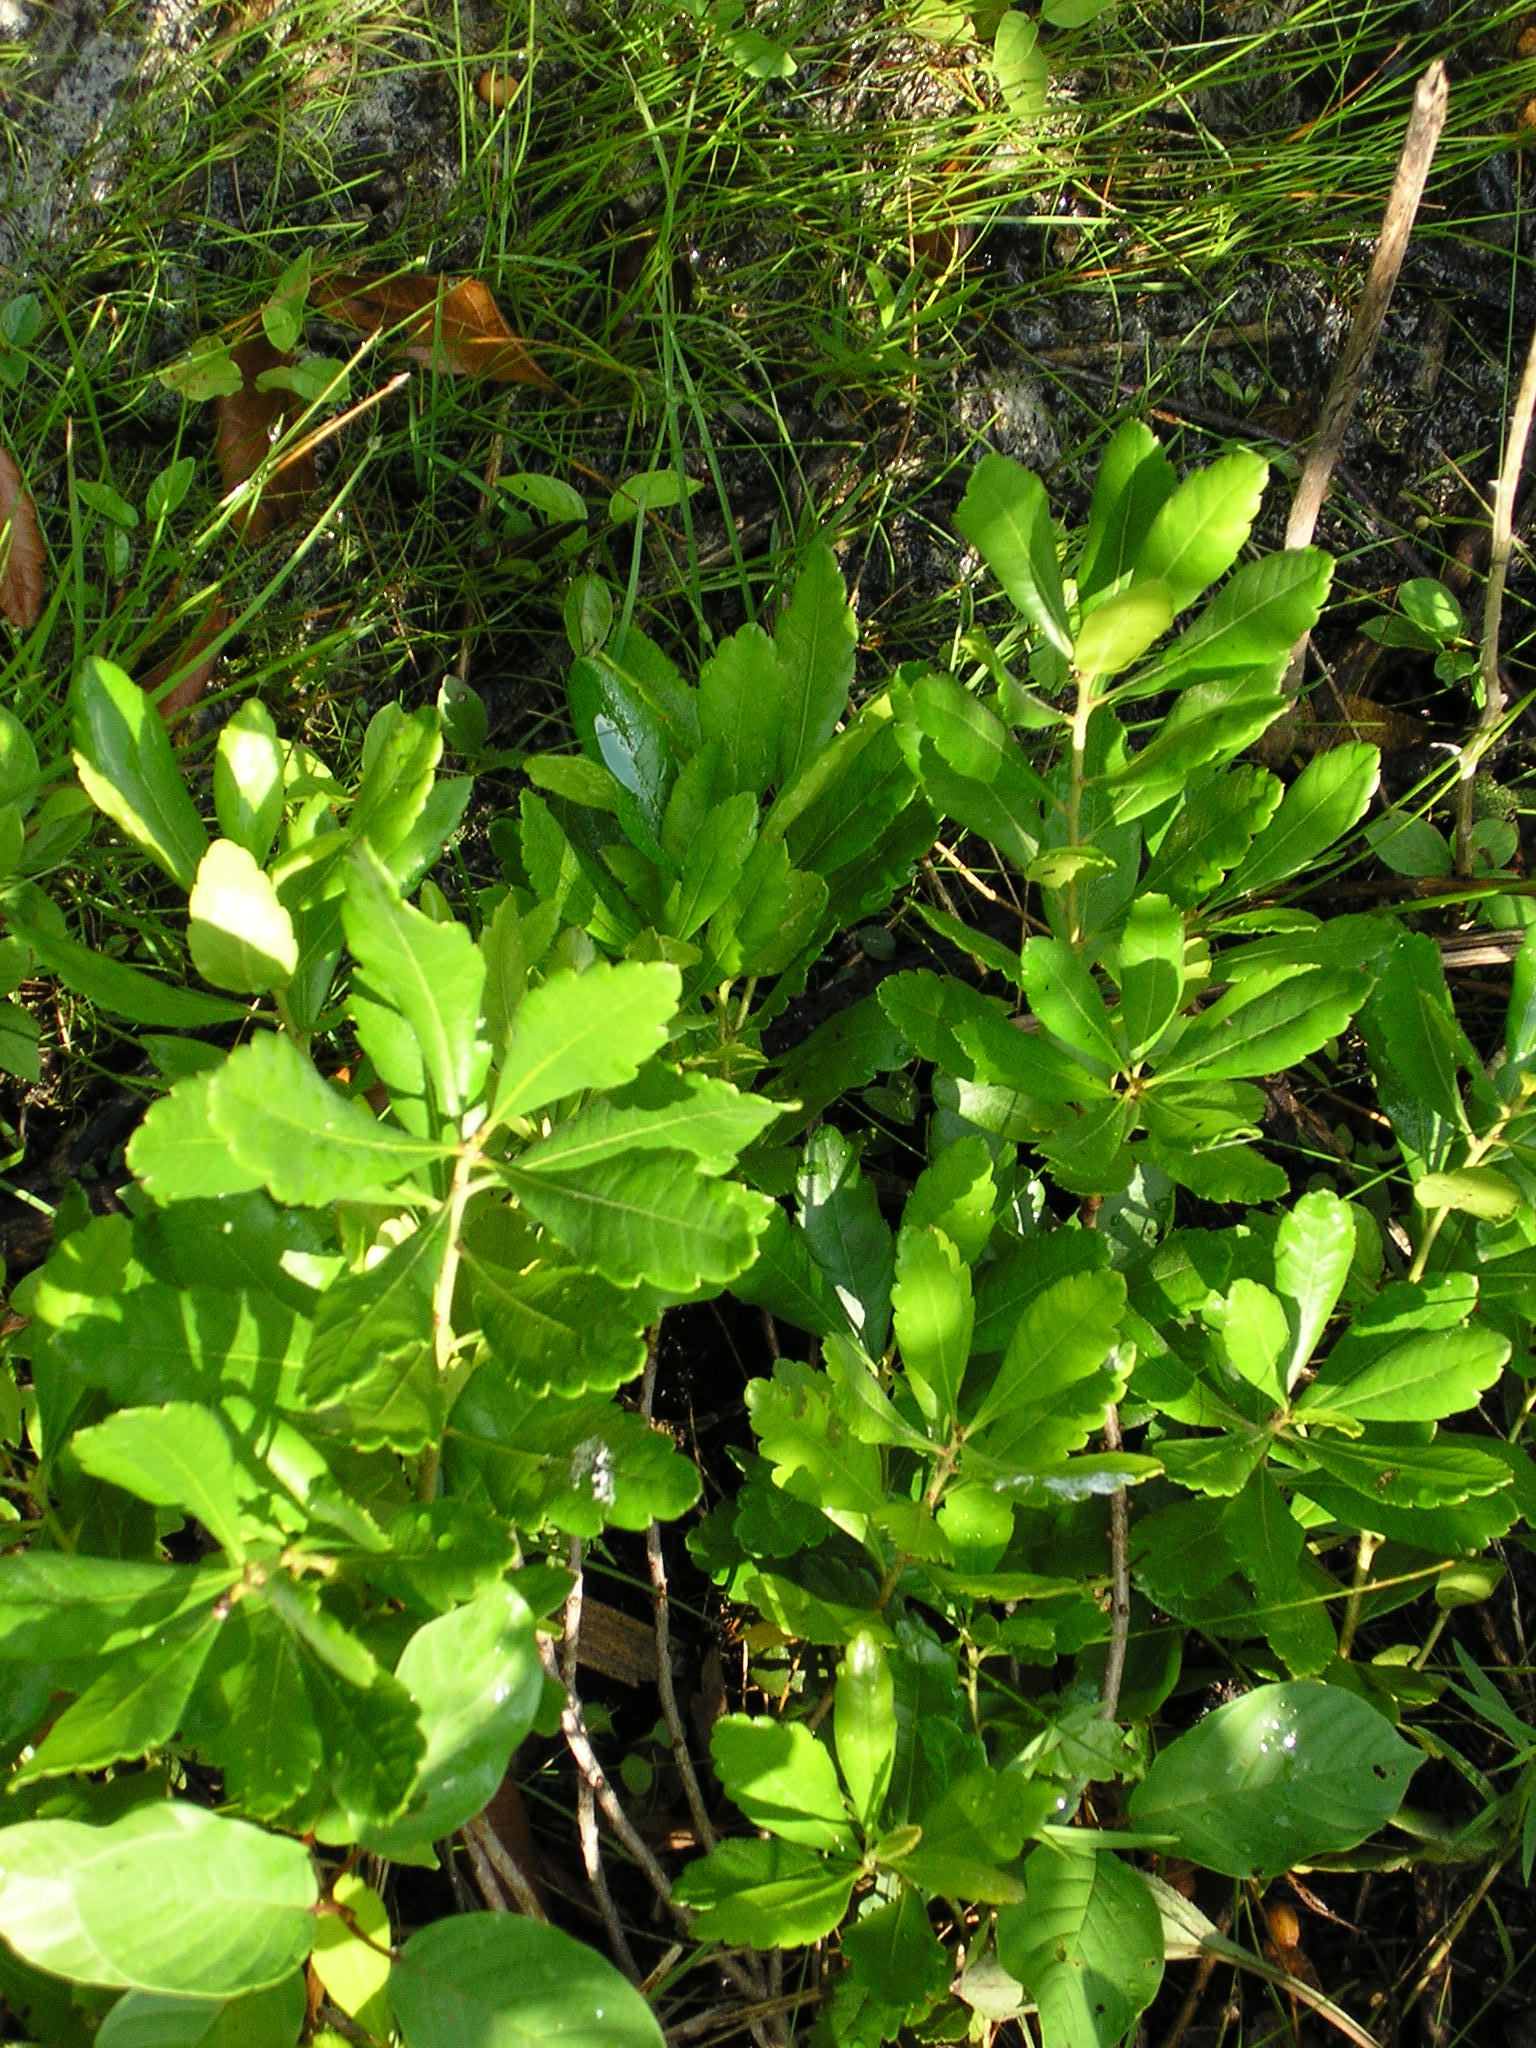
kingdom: Plantae
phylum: Tracheophyta
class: Magnoliopsida
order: Fagales
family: Myricaceae
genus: Morella
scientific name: Morella pensylvanica
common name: Northern bayberry
